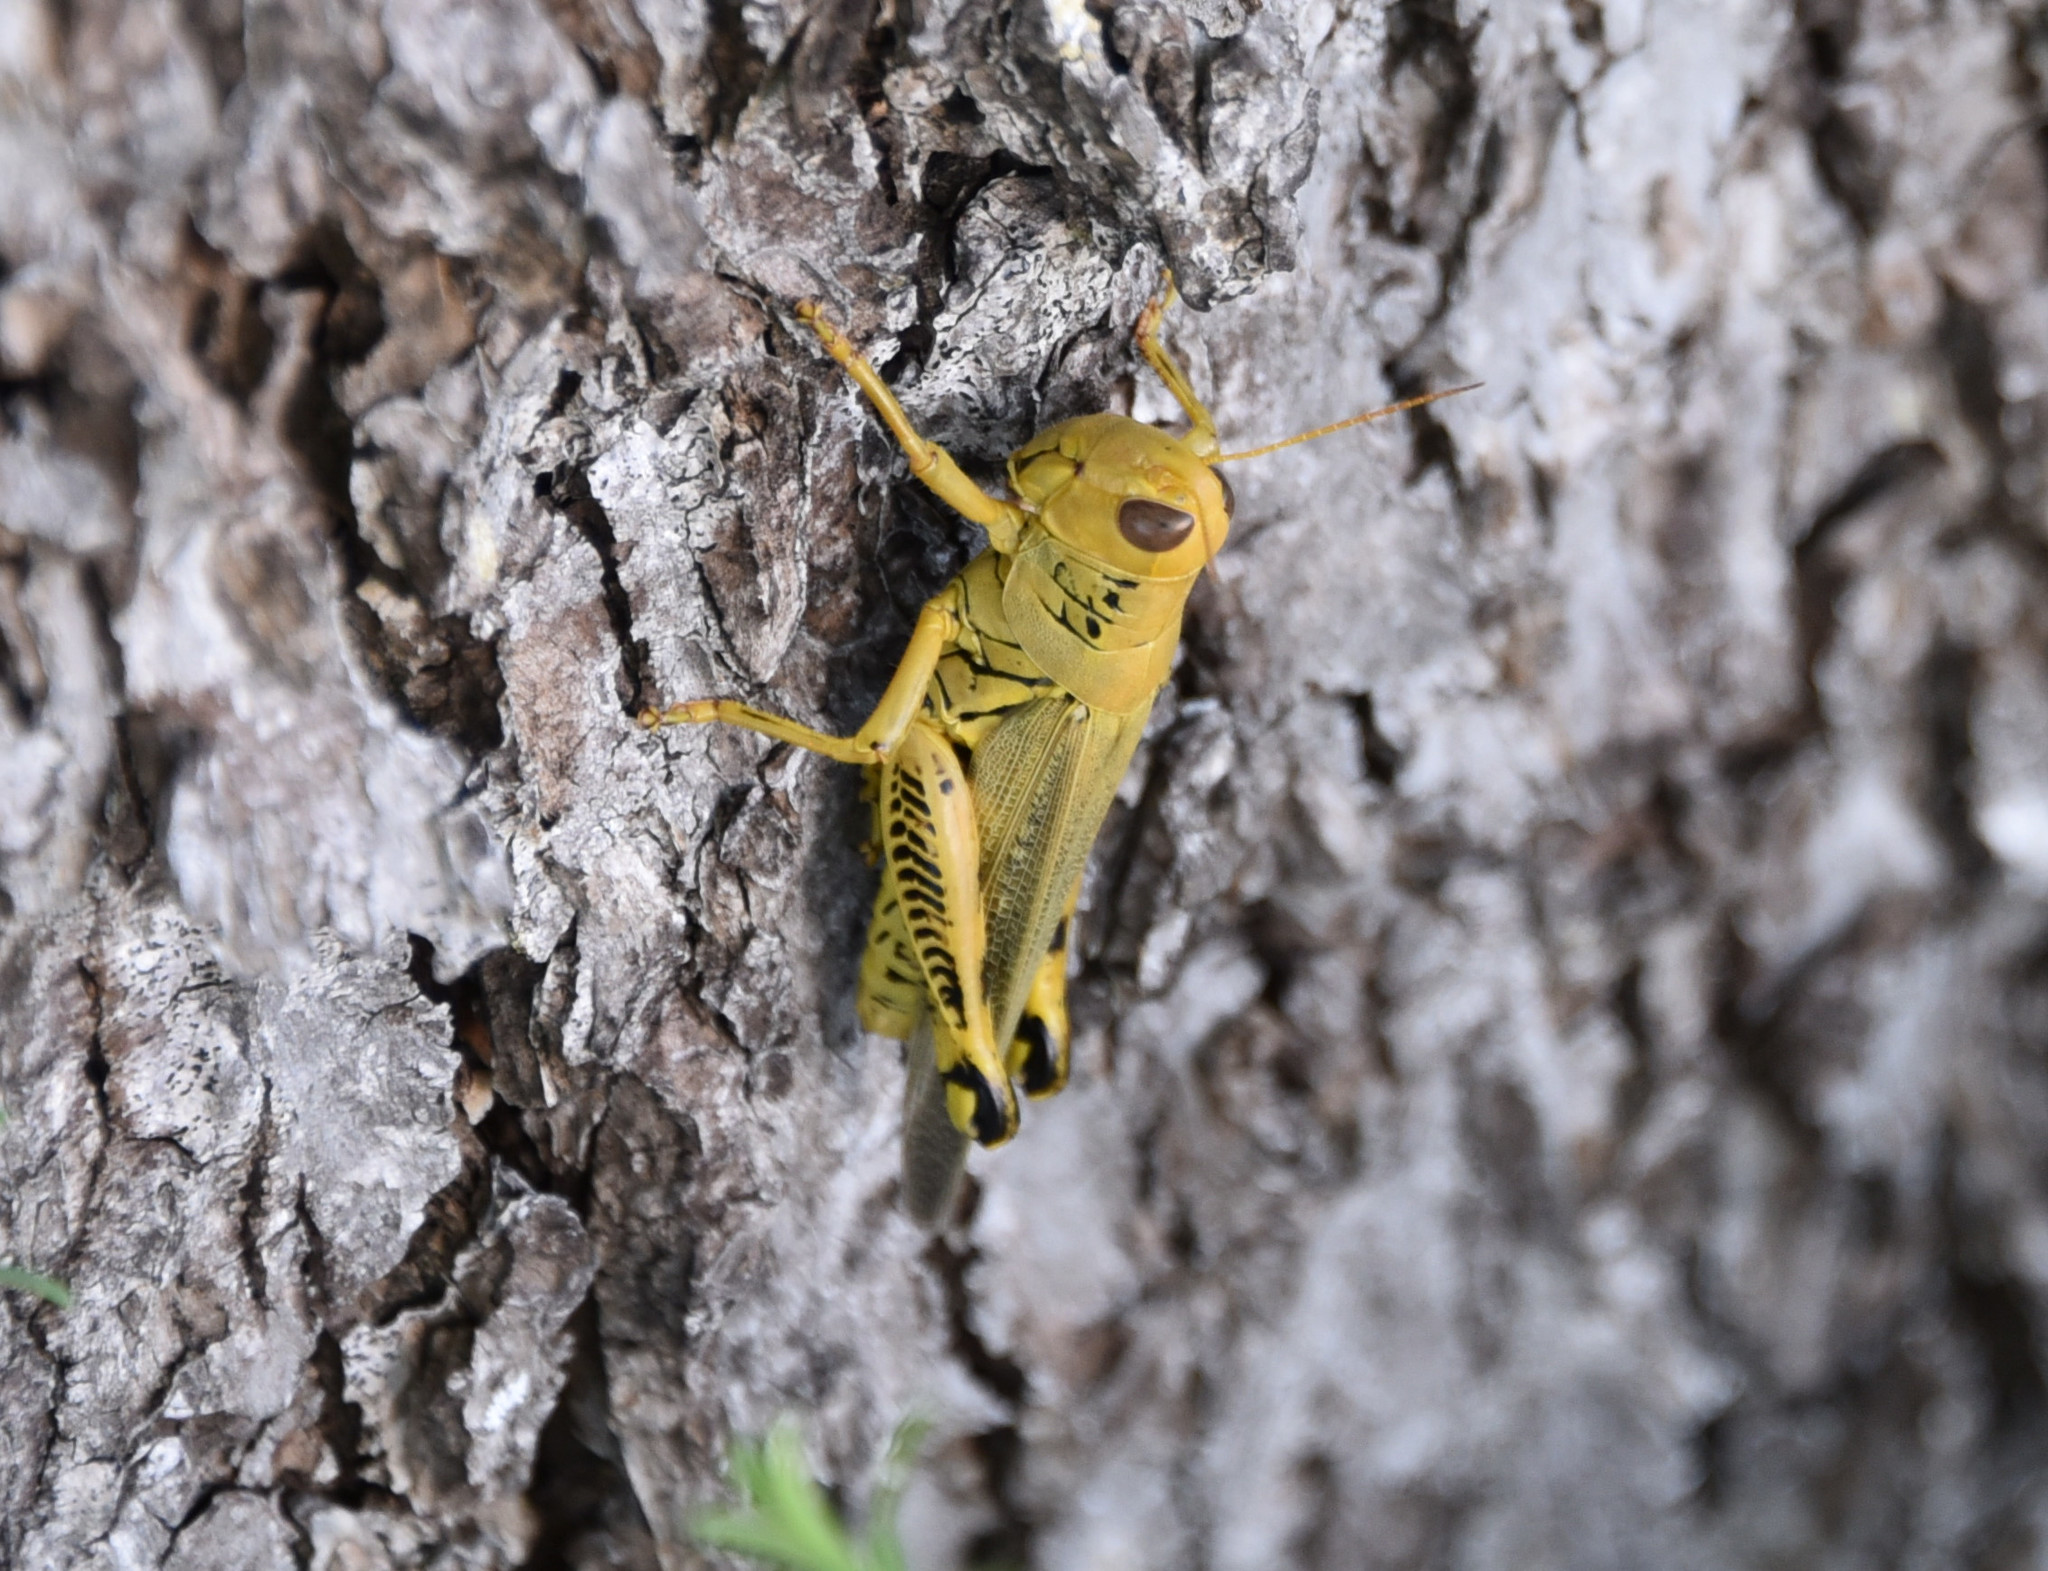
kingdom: Animalia
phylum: Arthropoda
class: Insecta
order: Orthoptera
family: Acrididae
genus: Melanoplus
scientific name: Melanoplus differentialis
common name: Differential grasshopper
